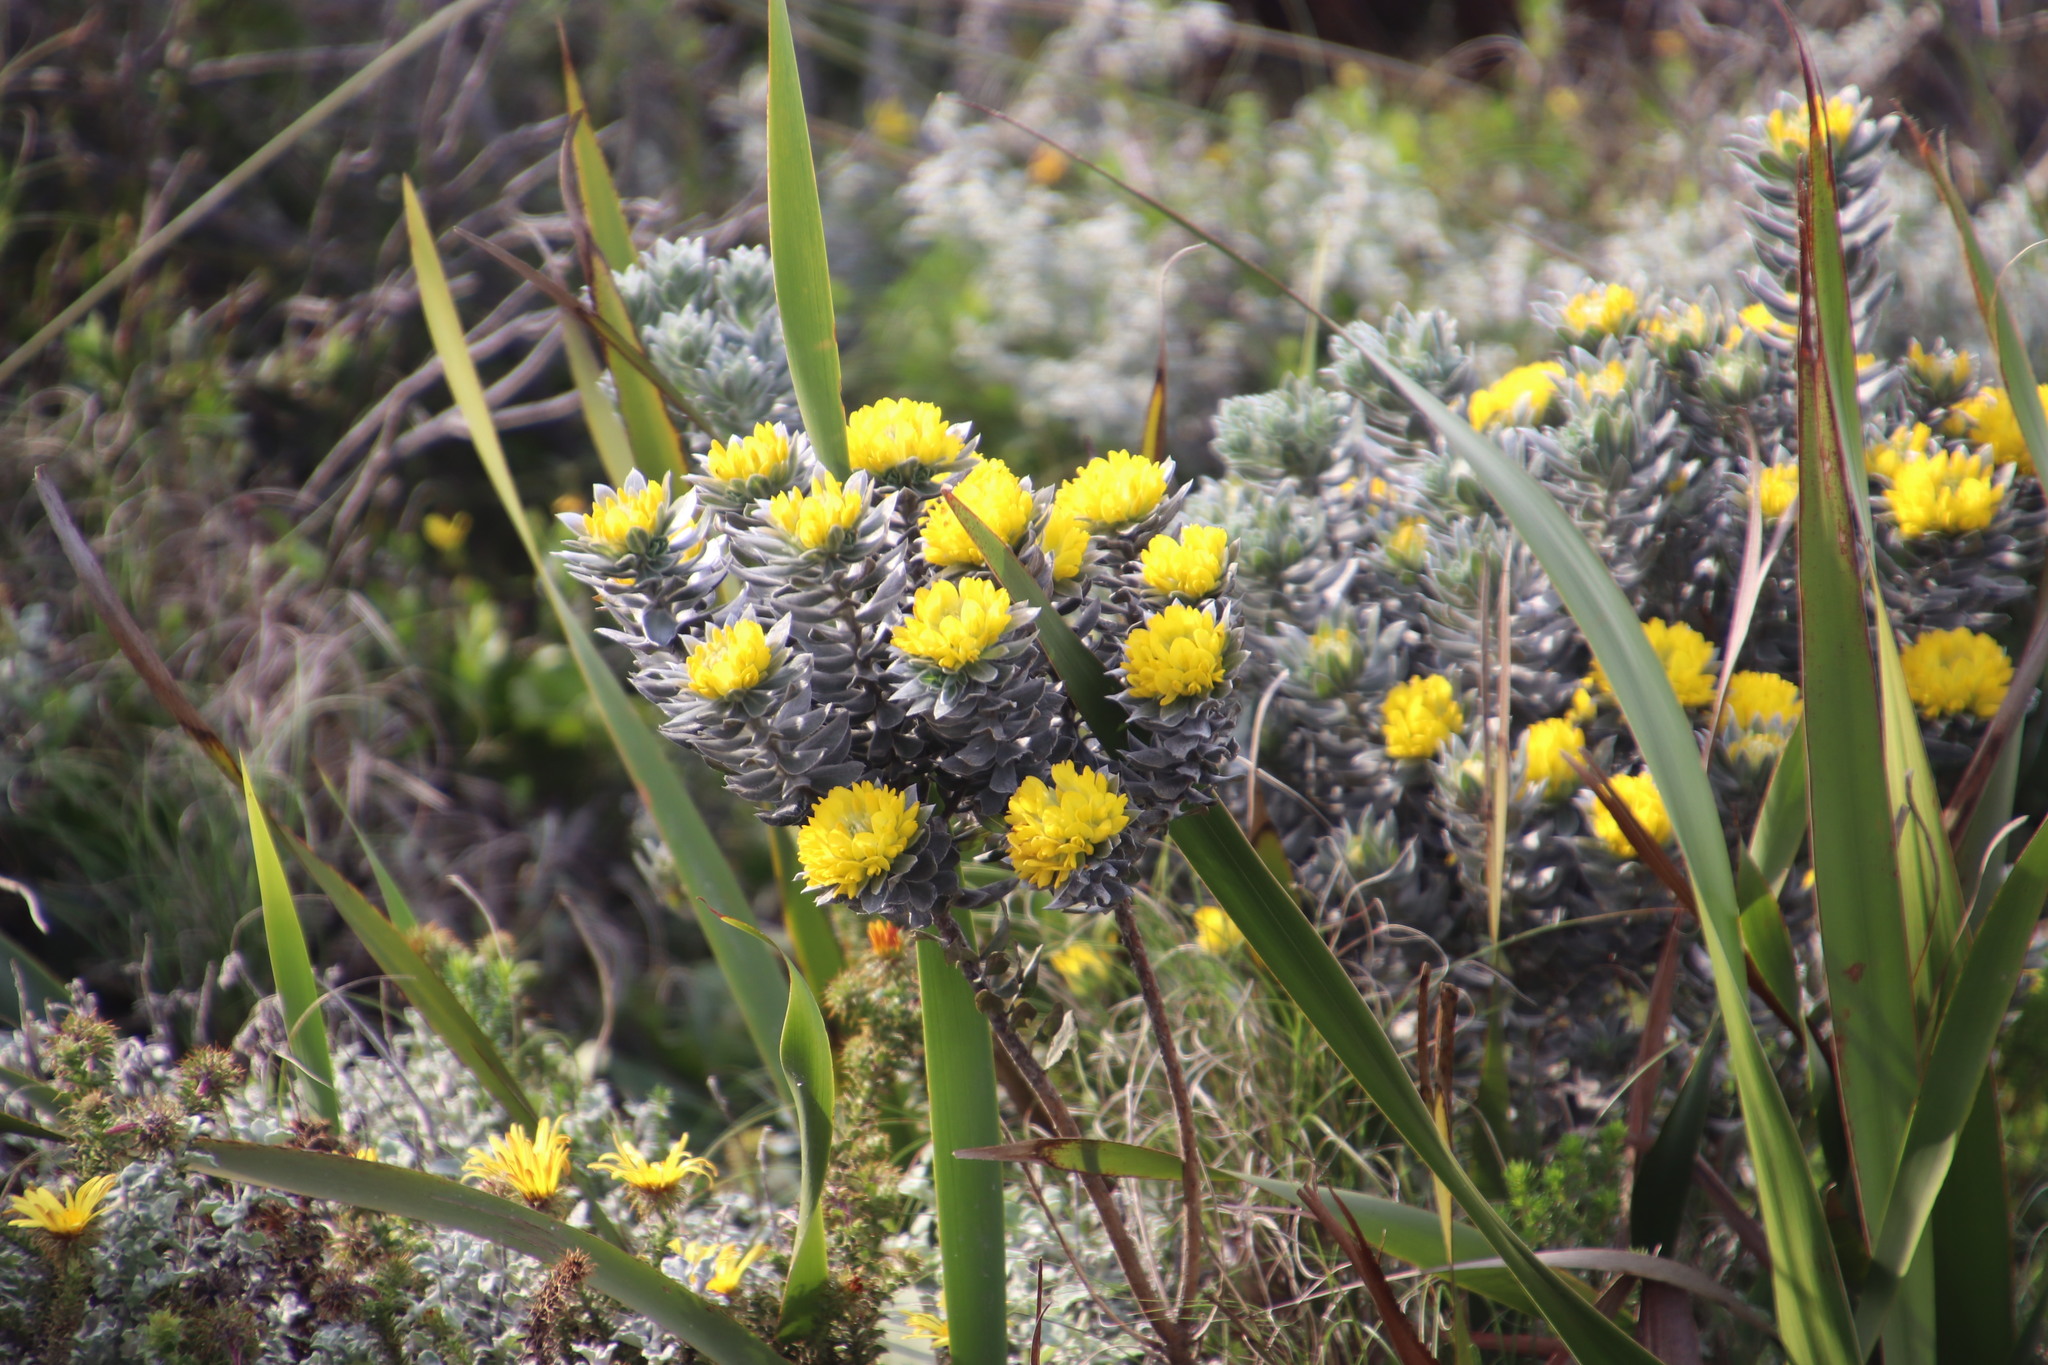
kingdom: Plantae
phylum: Tracheophyta
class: Magnoliopsida
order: Fabales
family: Fabaceae
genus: Xiphotheca
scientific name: Xiphotheca fruticosa
